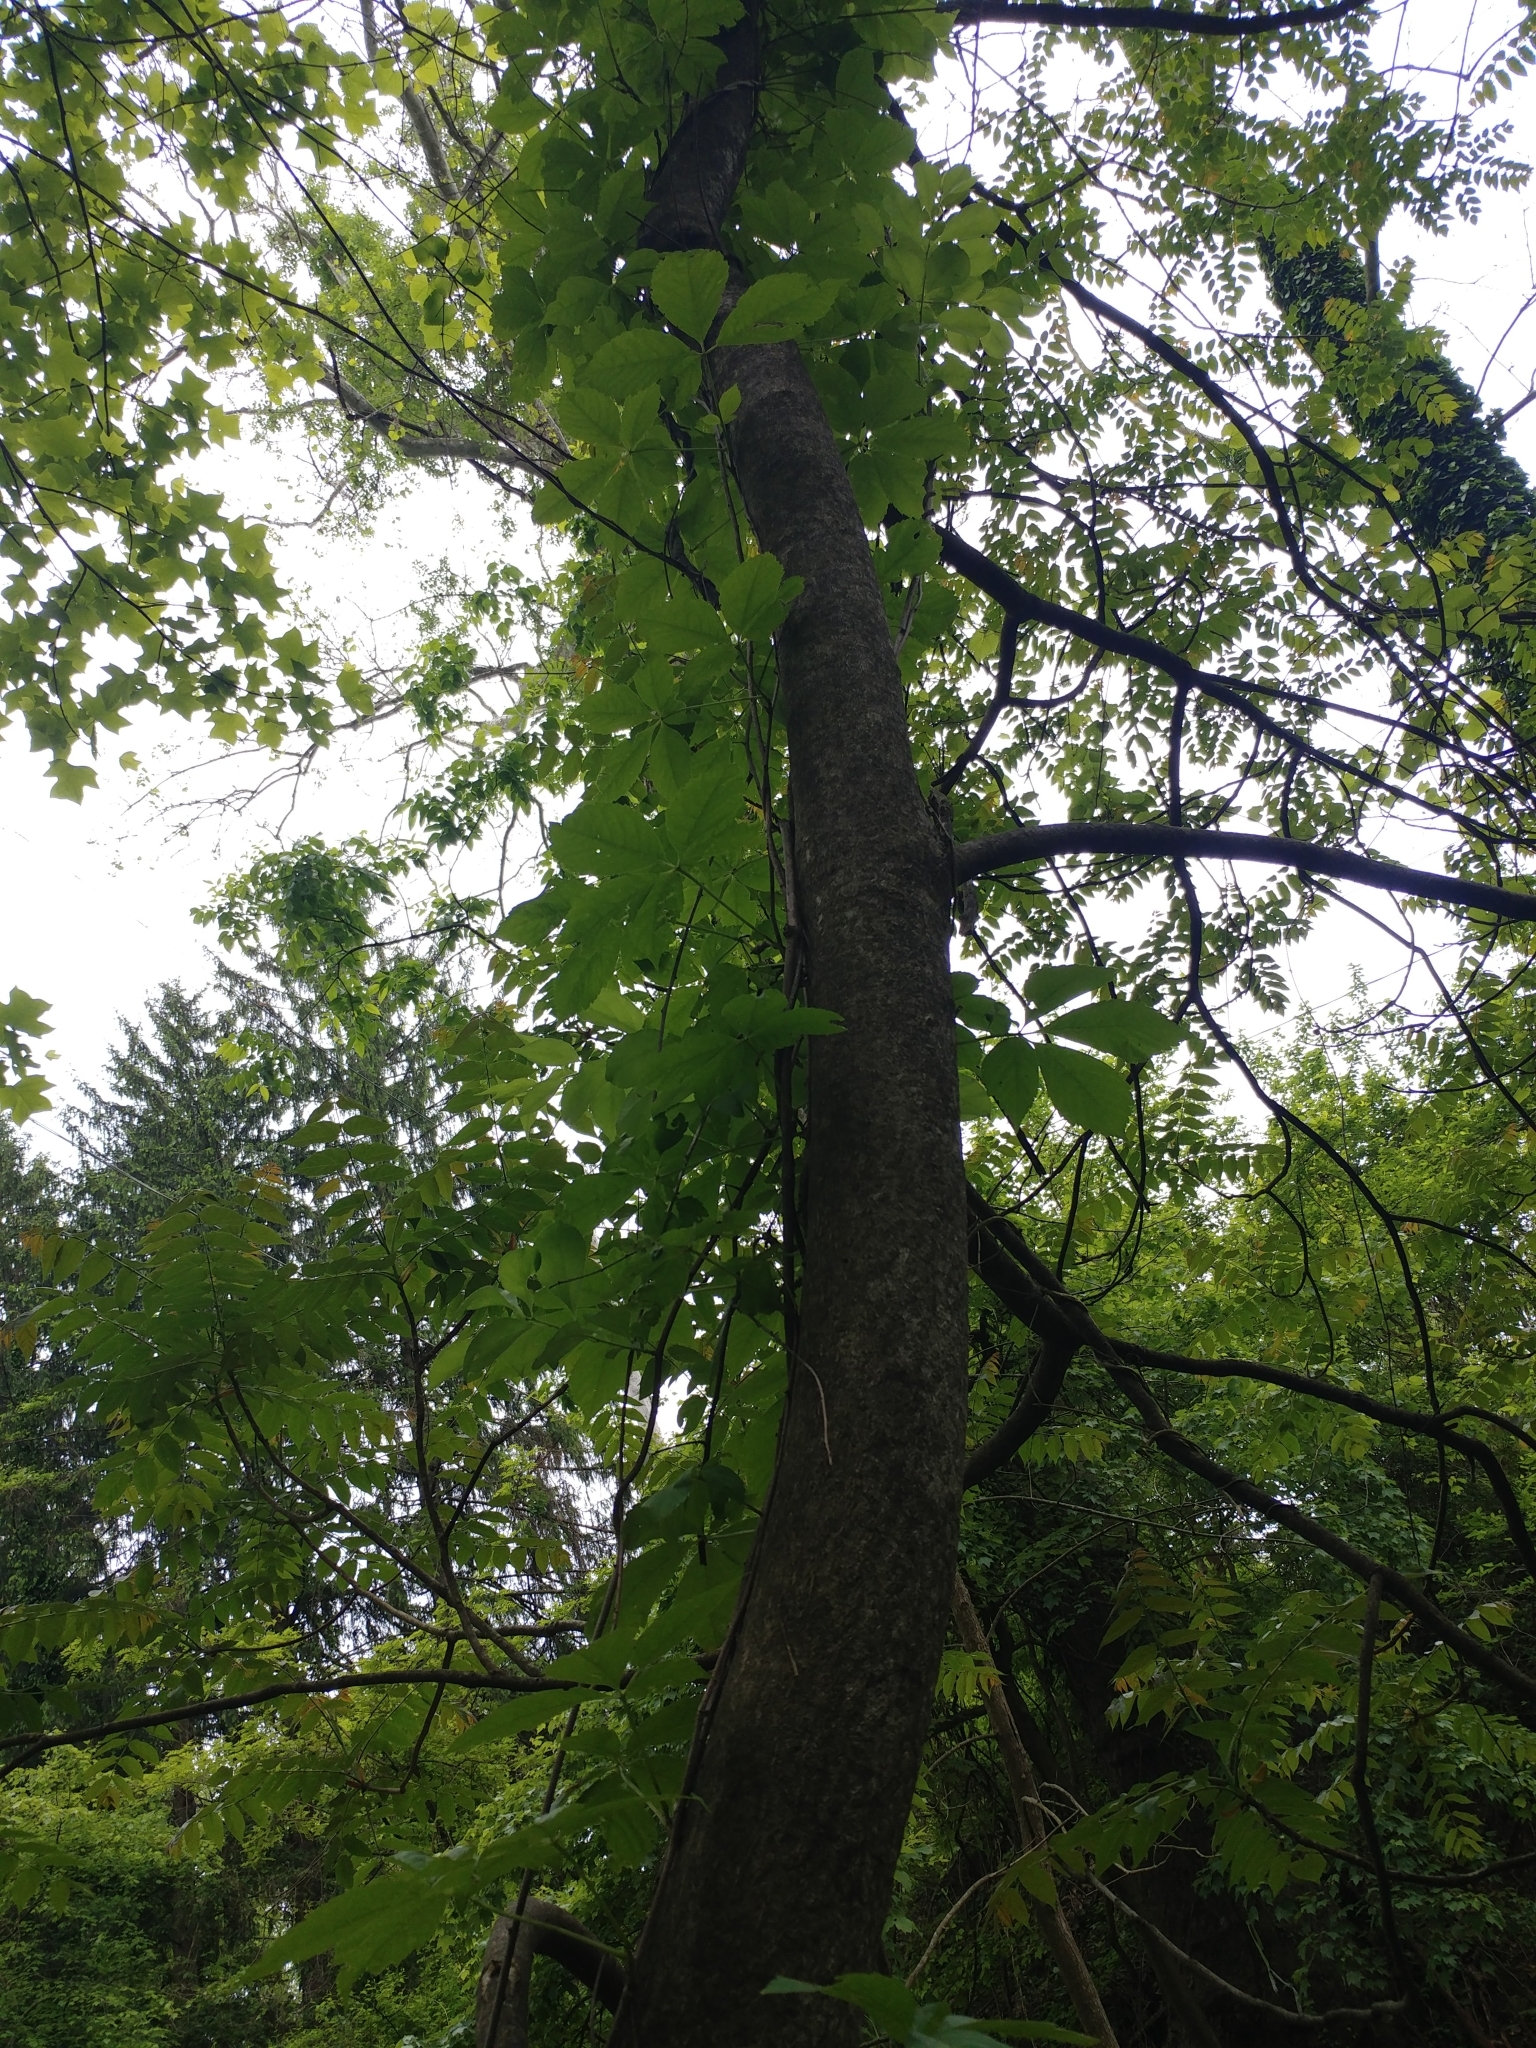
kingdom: Plantae
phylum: Tracheophyta
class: Magnoliopsida
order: Sapindales
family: Simaroubaceae
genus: Ailanthus
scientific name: Ailanthus altissima
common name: Tree-of-heaven
